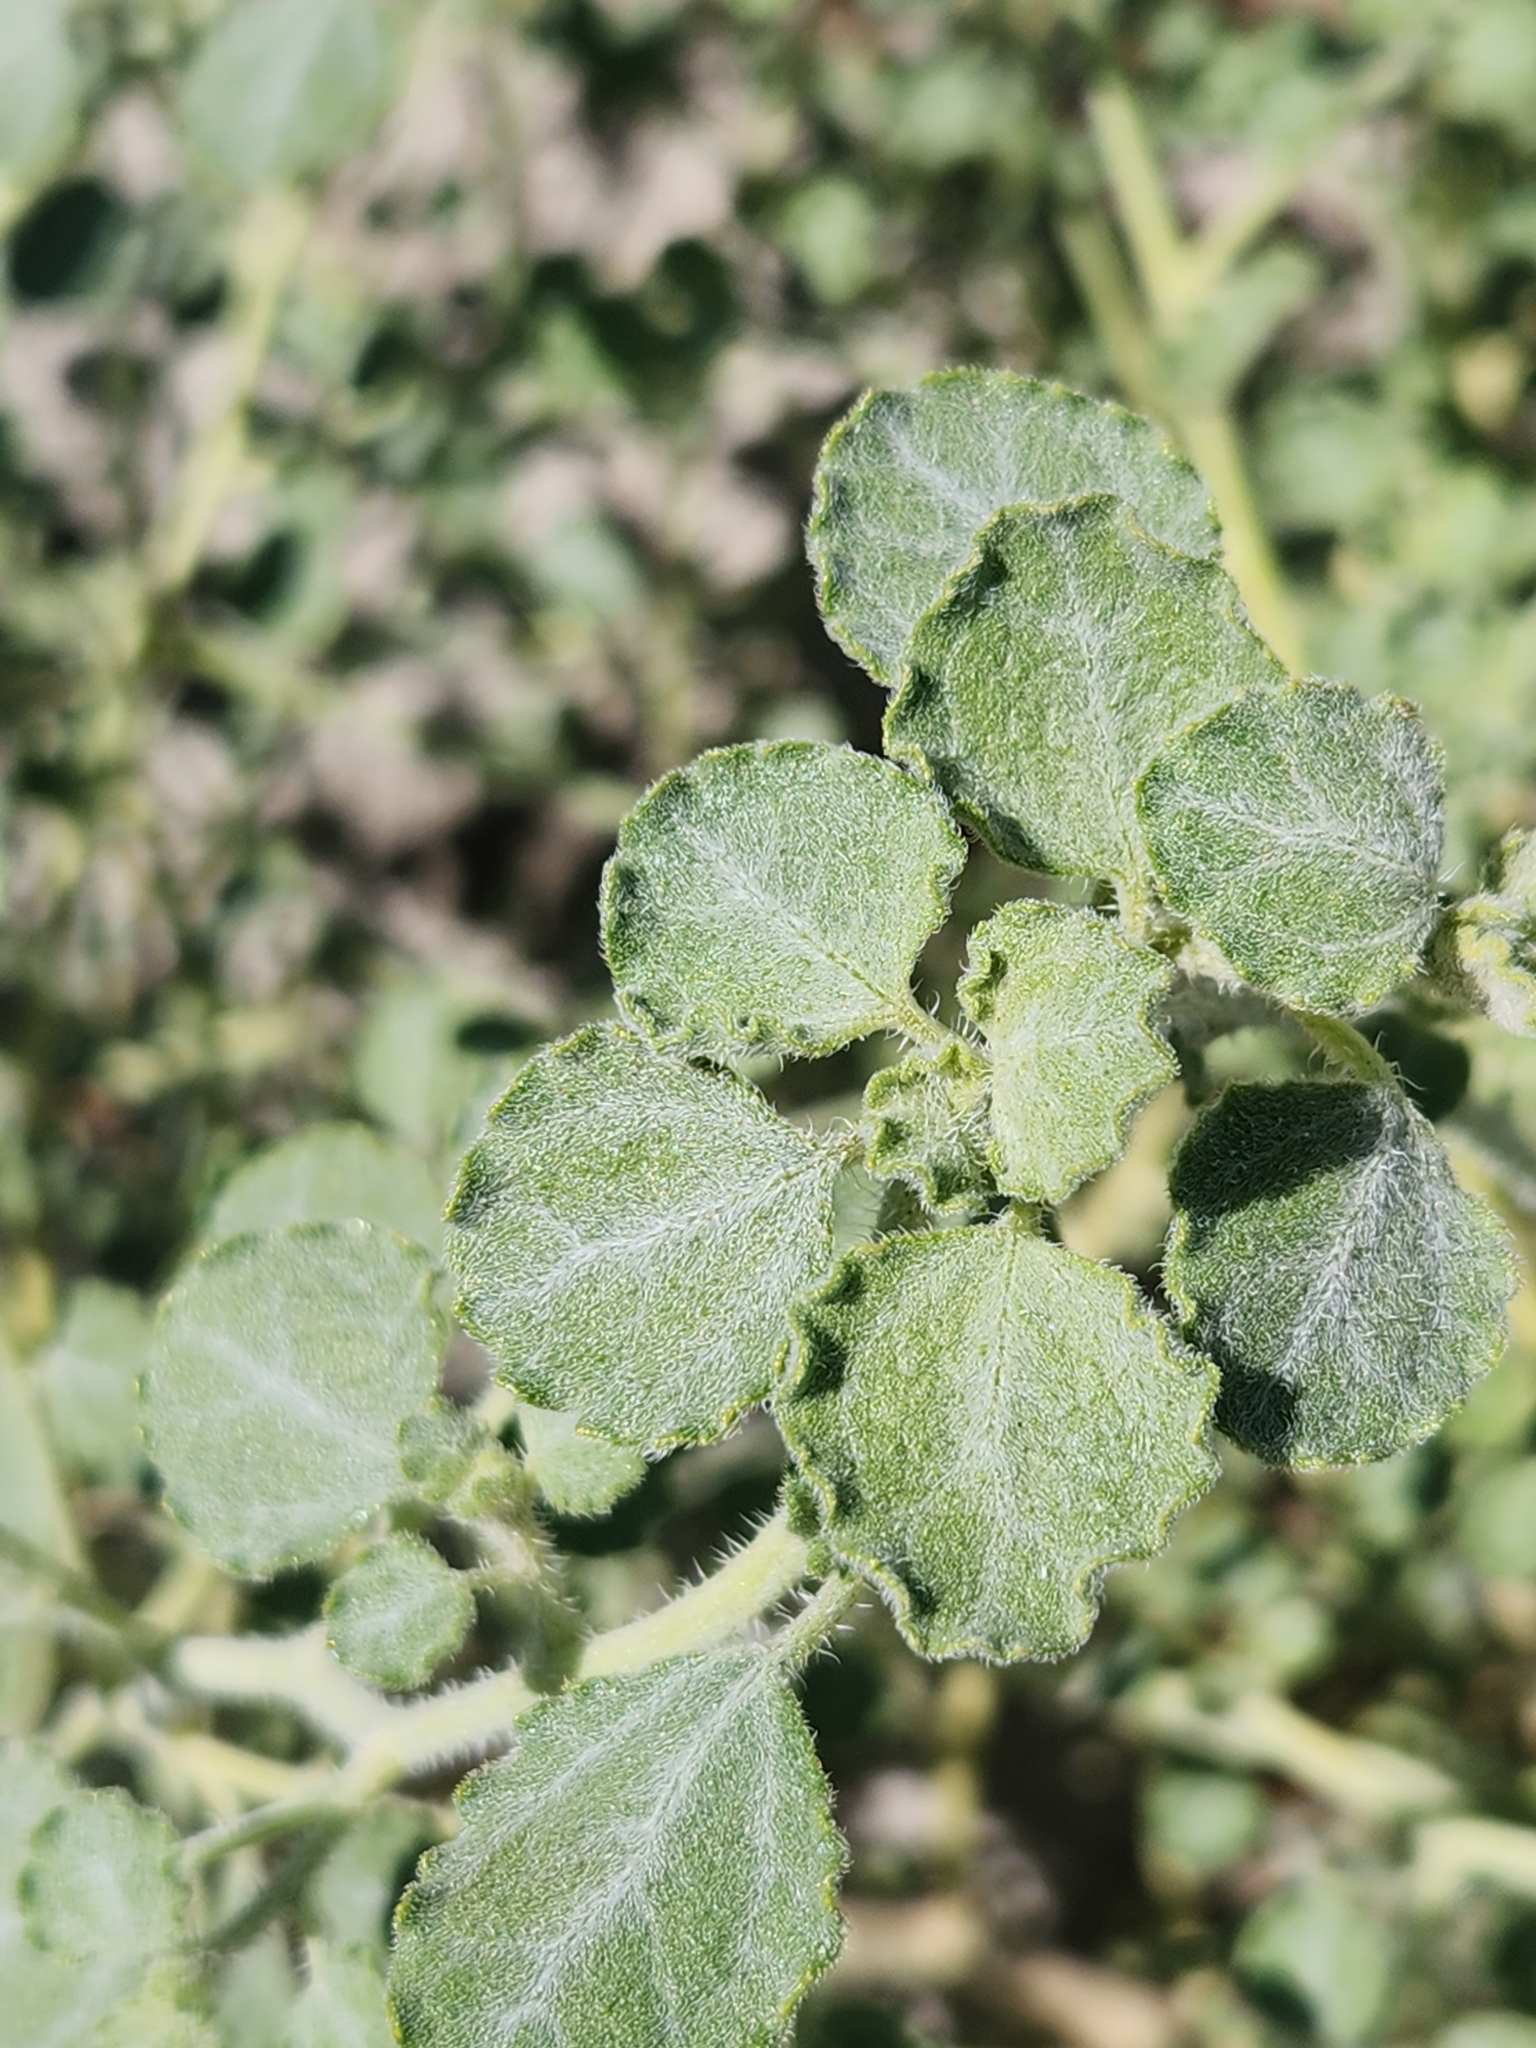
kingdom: Plantae
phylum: Tracheophyta
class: Magnoliopsida
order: Asterales
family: Asteraceae
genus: Dicoria
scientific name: Dicoria canescens
